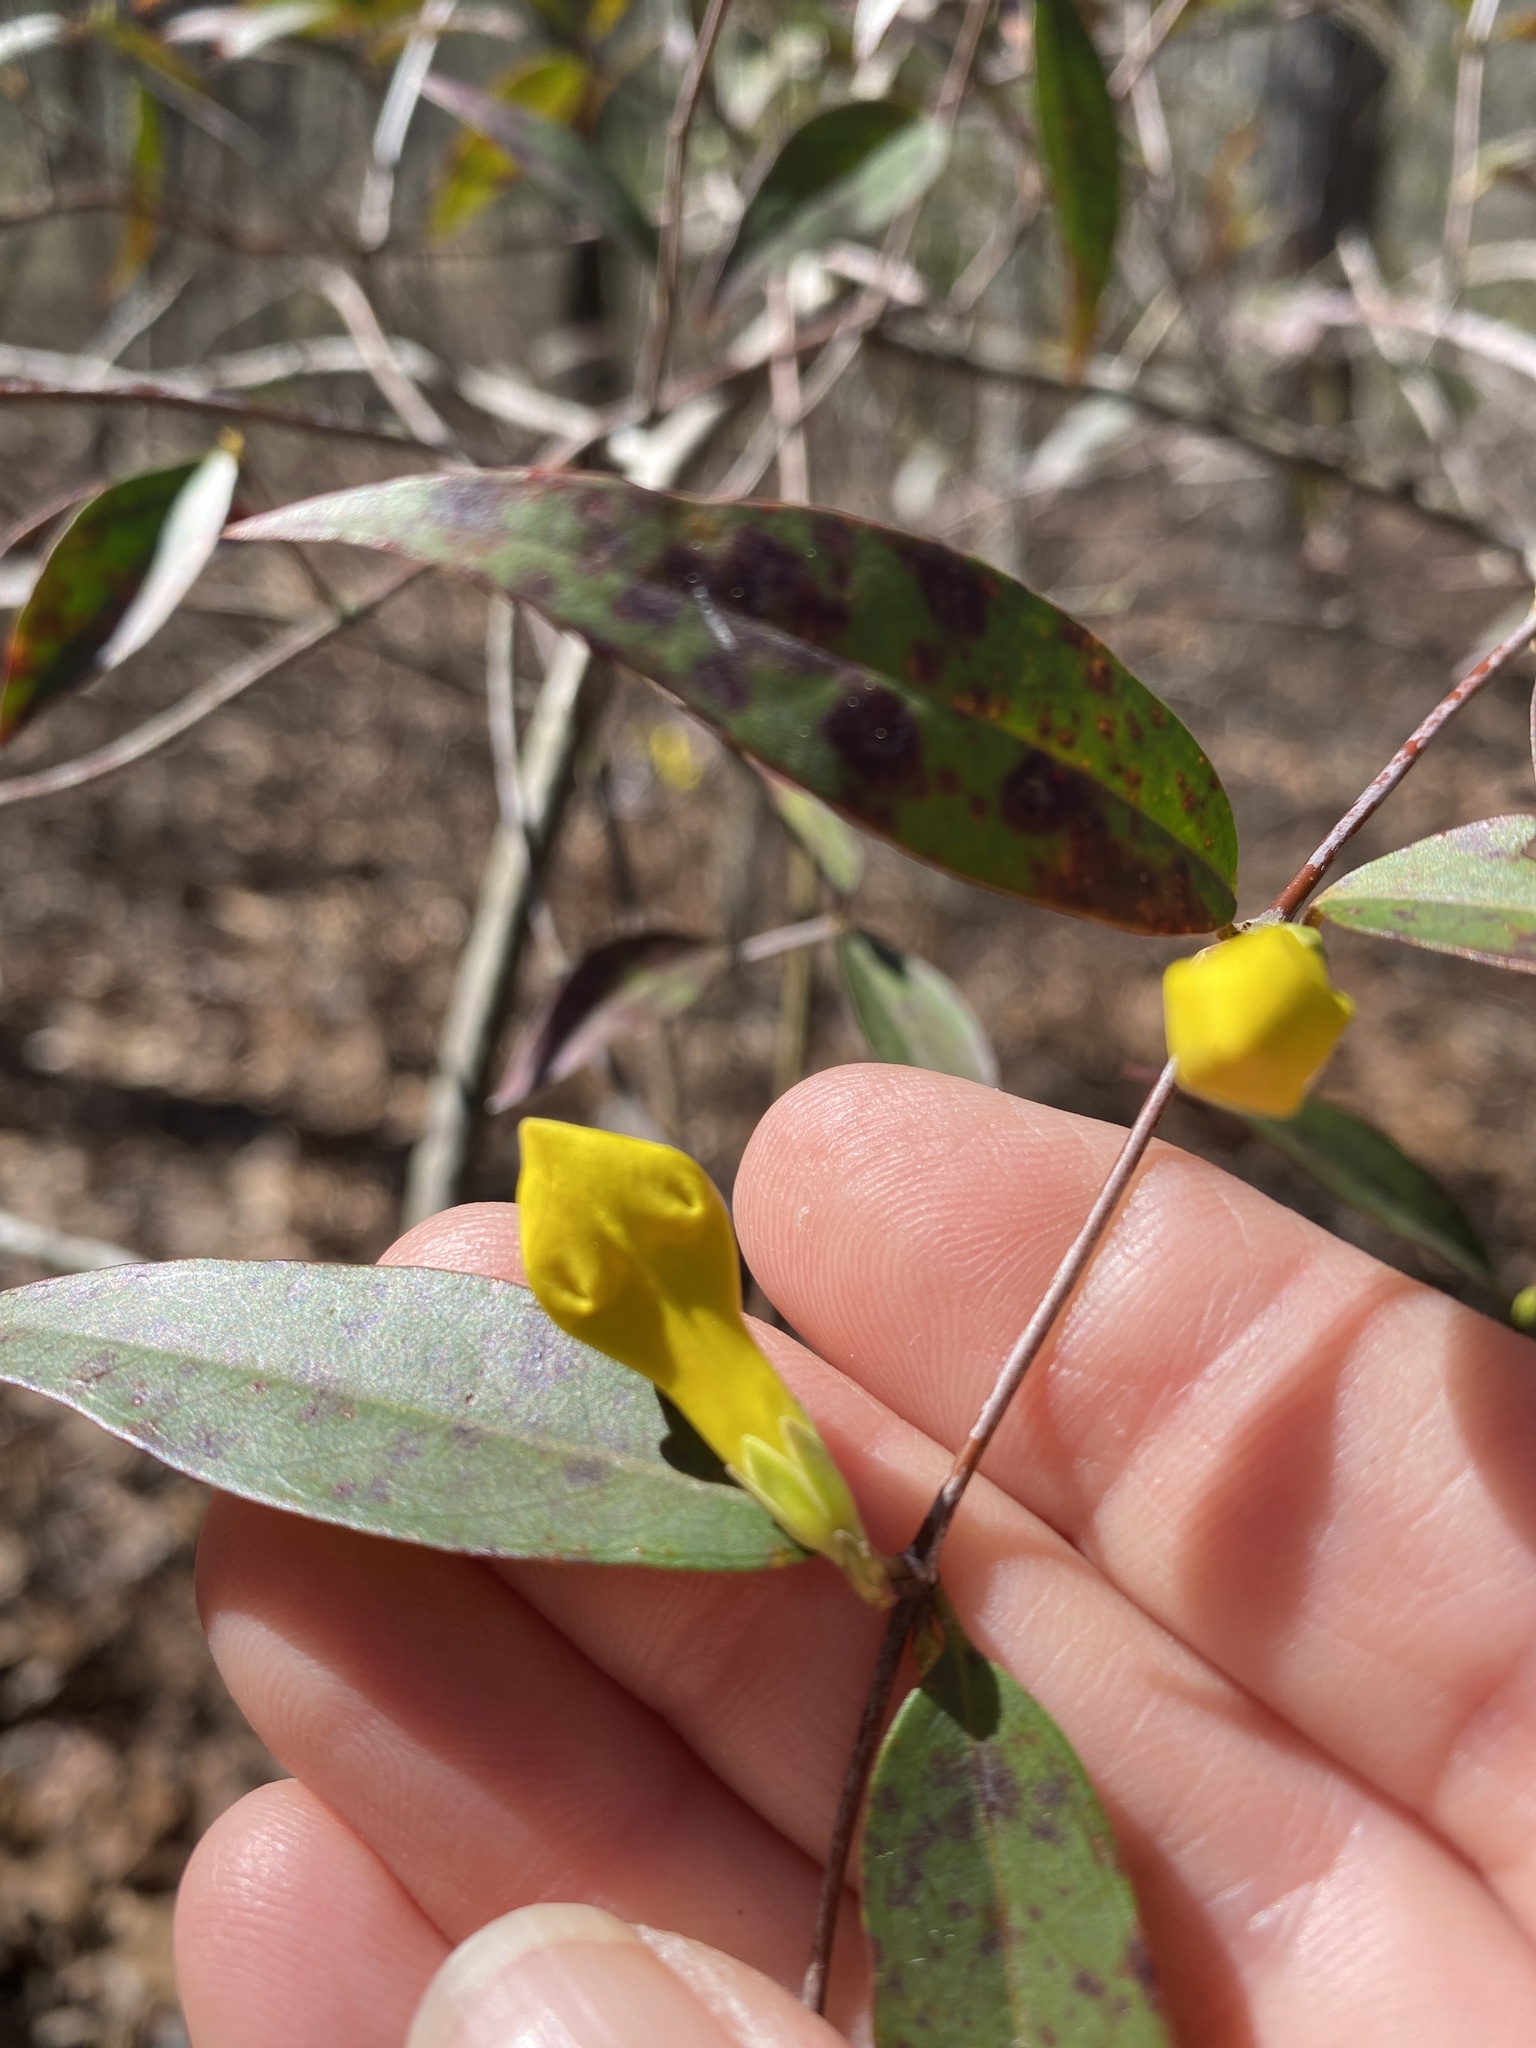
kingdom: Plantae
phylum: Tracheophyta
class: Magnoliopsida
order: Gentianales
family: Gelsemiaceae
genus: Gelsemium
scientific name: Gelsemium sempervirens
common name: Carolina-jasmine
